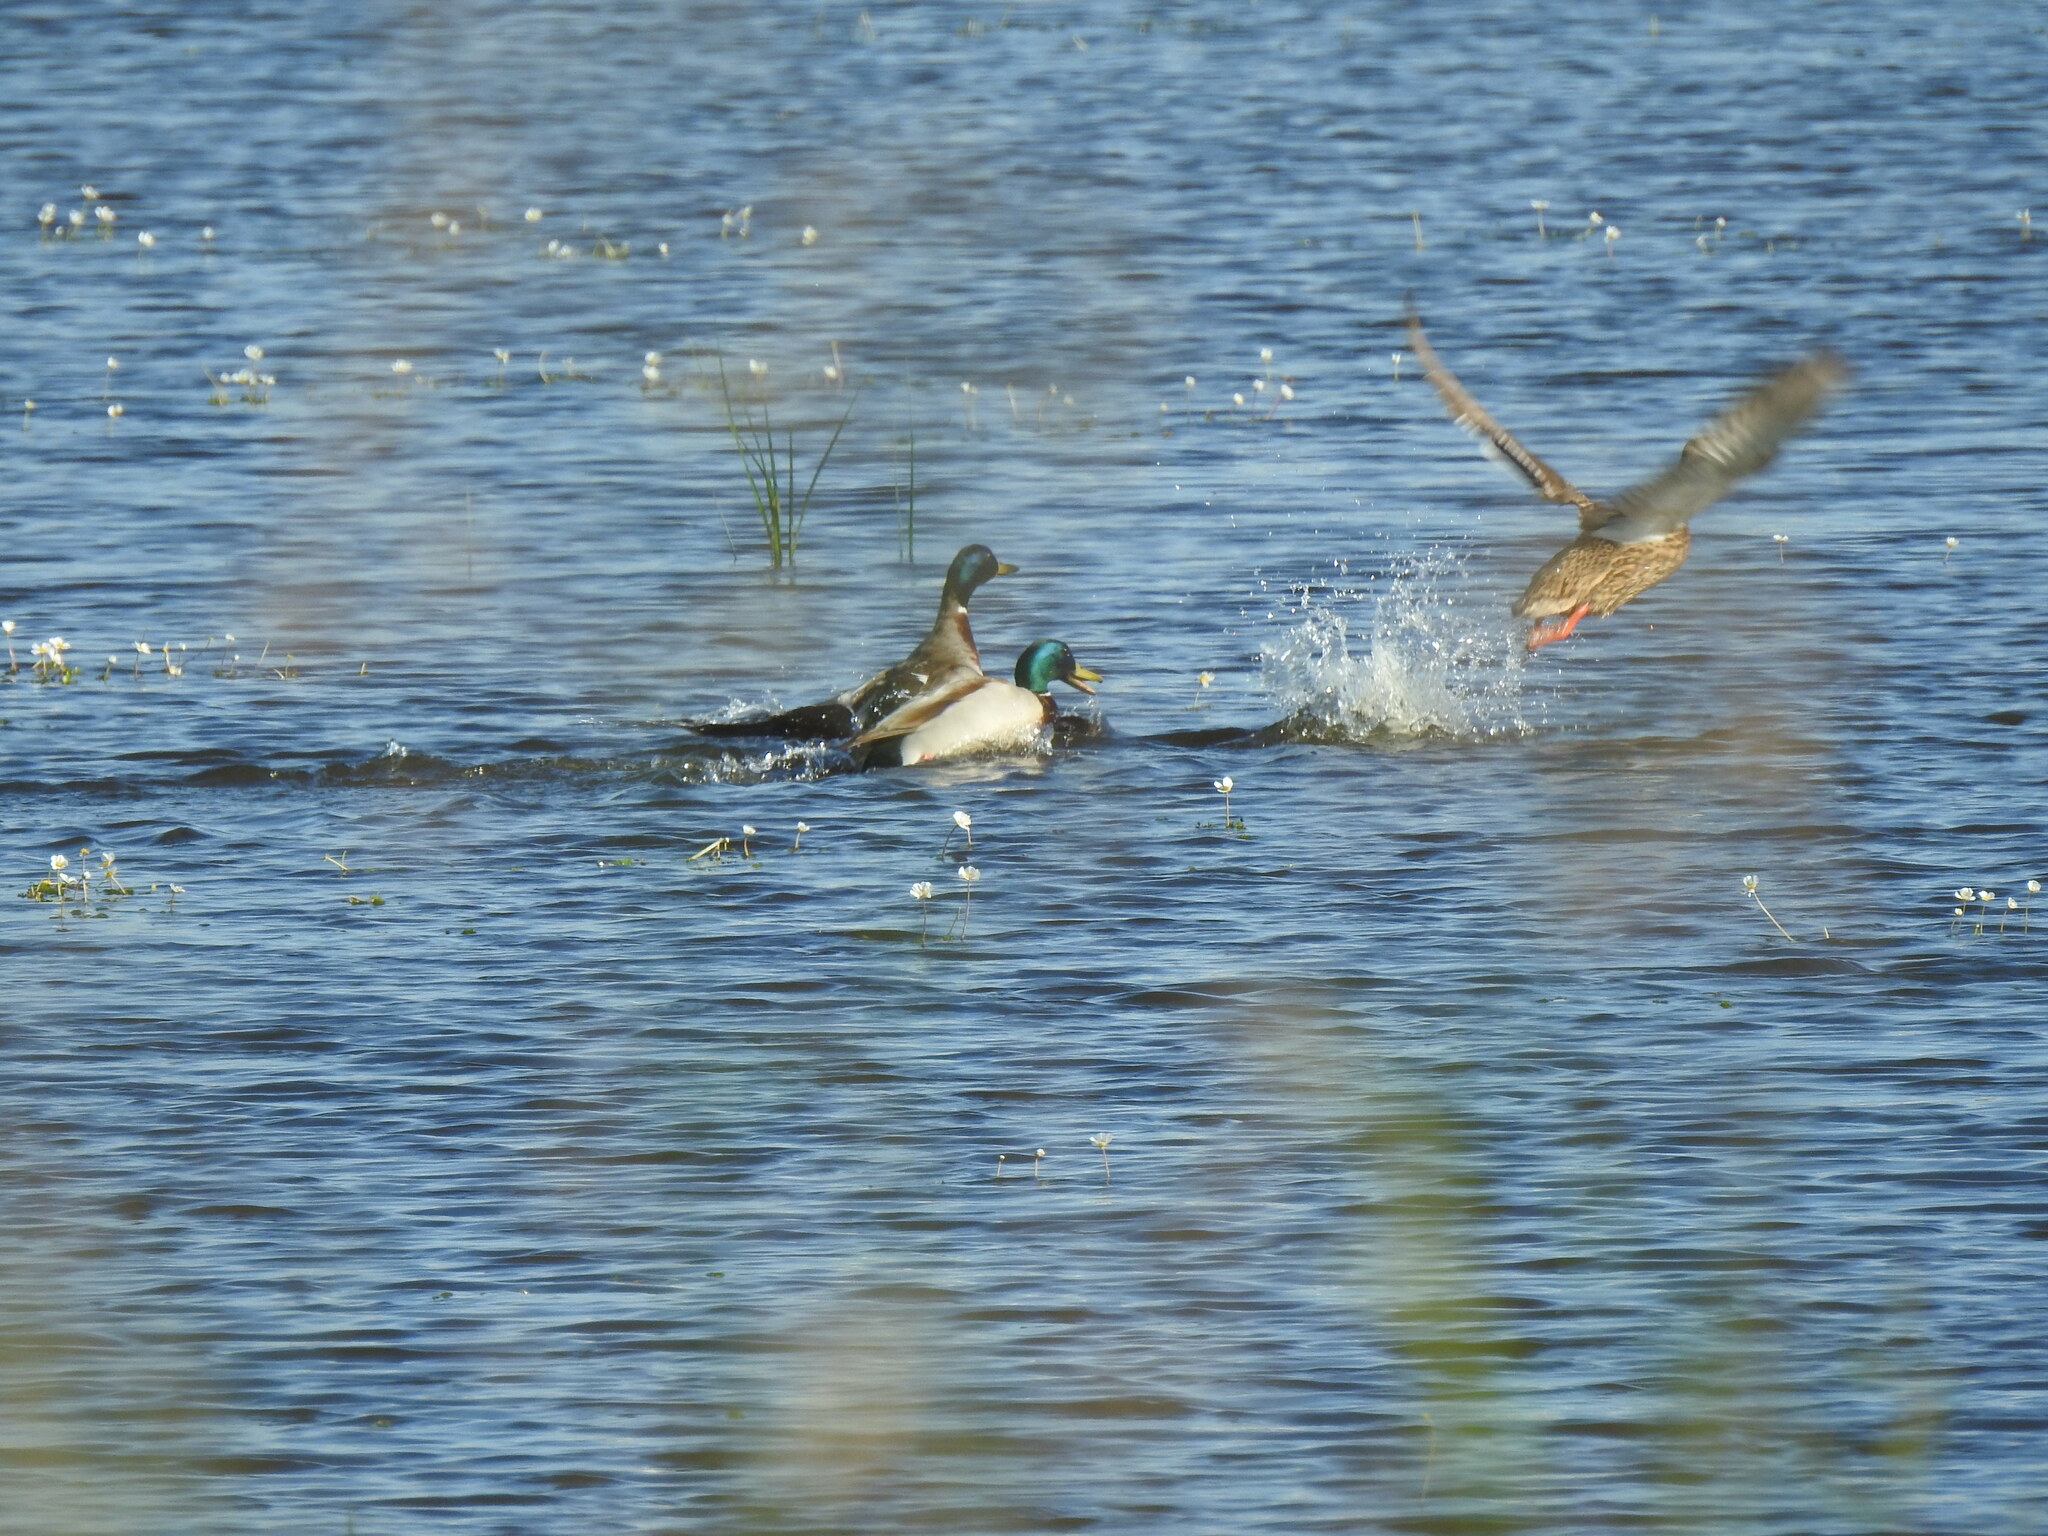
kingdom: Animalia
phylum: Chordata
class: Aves
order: Anseriformes
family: Anatidae
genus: Anas
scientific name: Anas platyrhynchos
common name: Mallard
